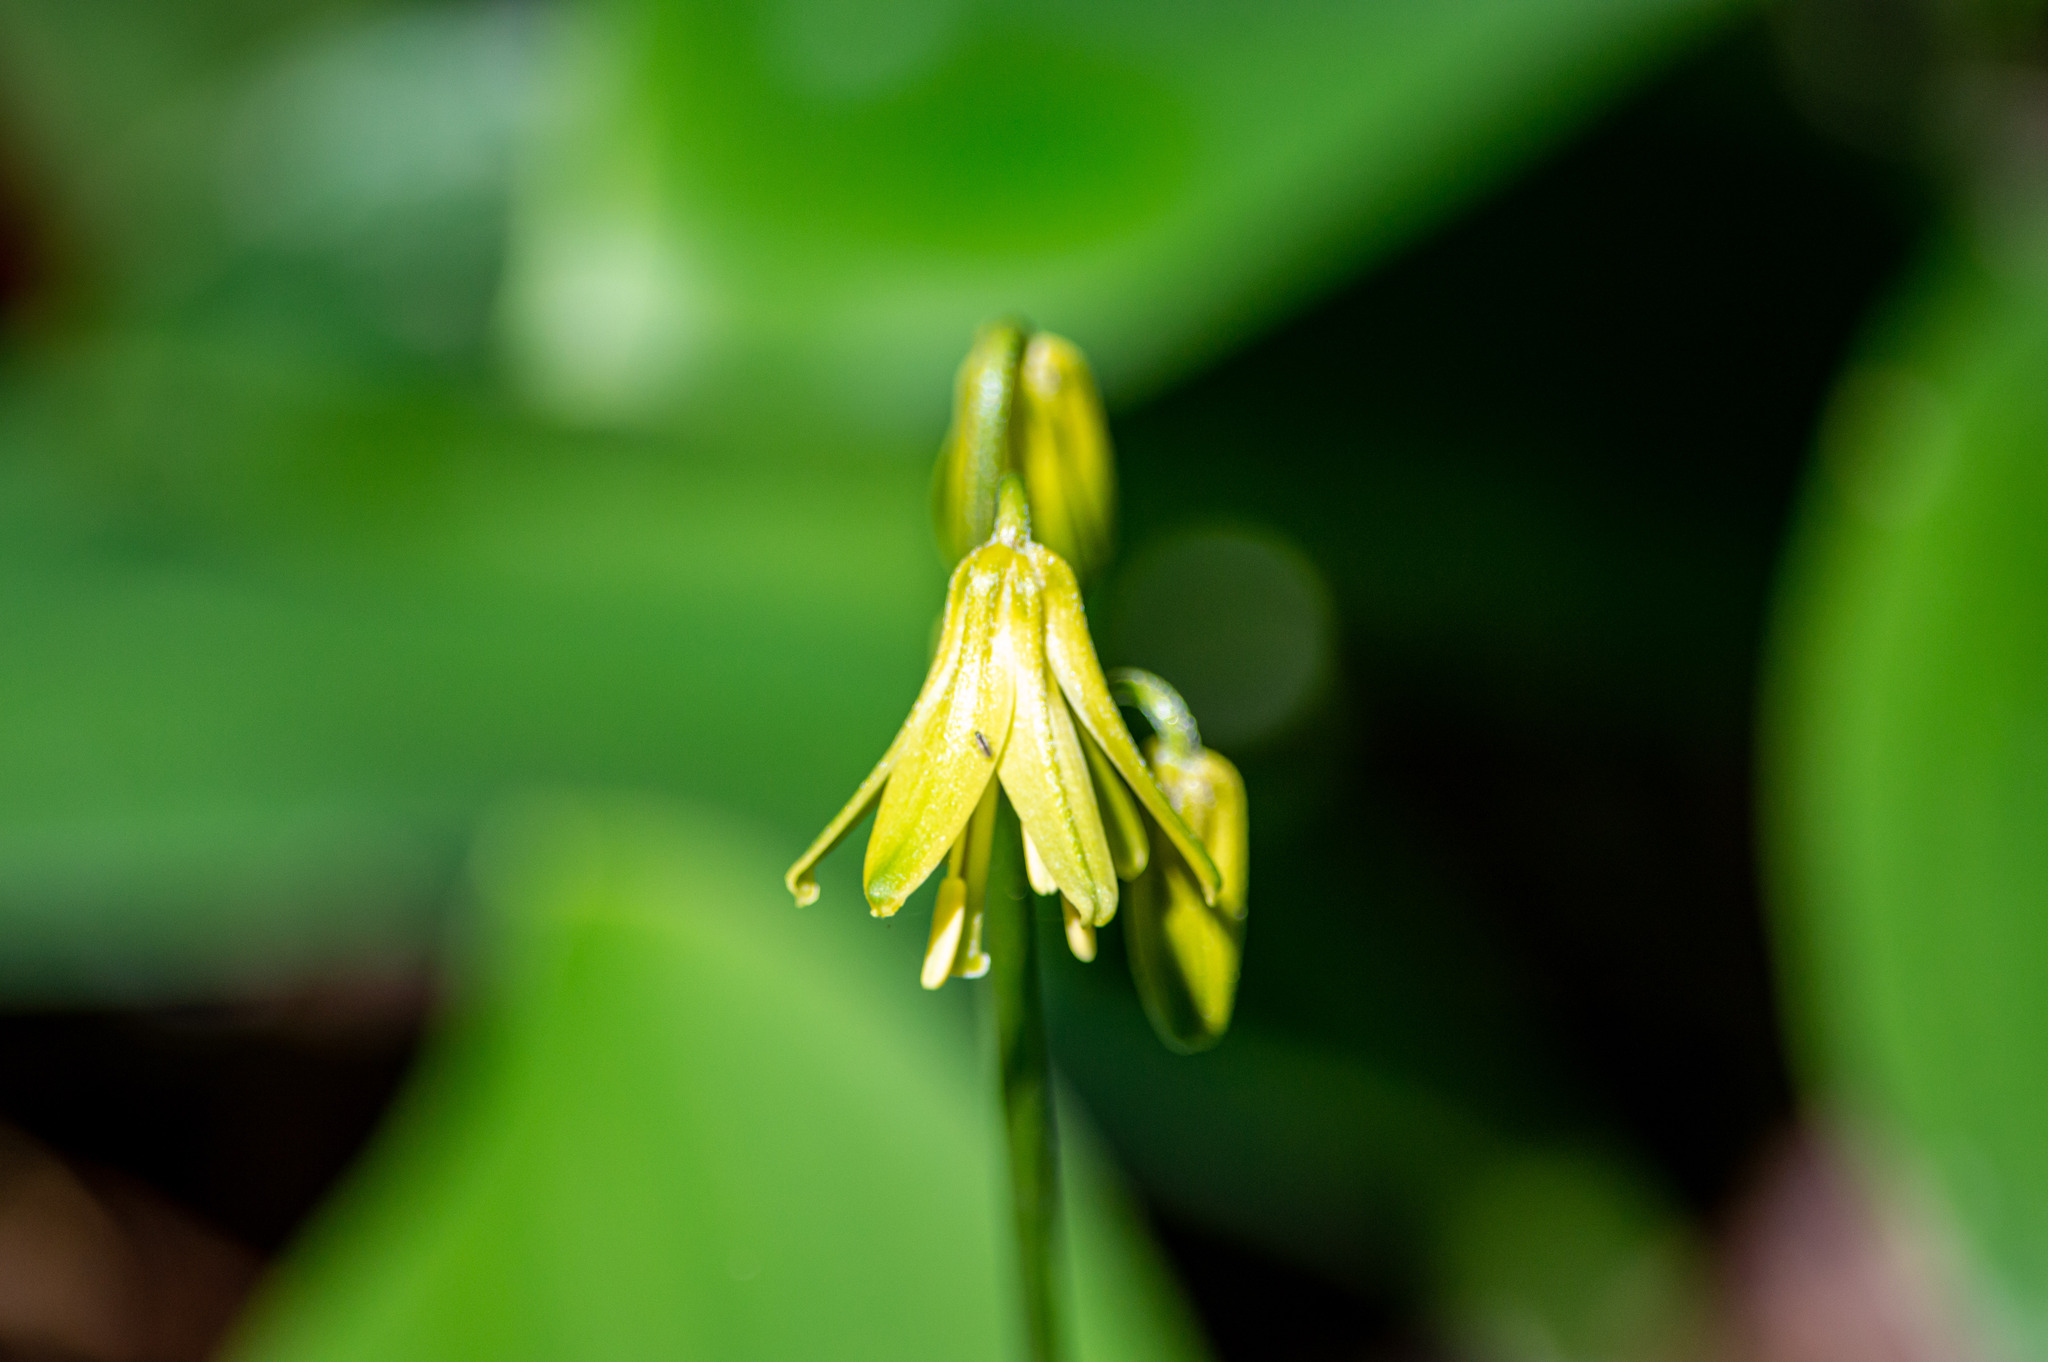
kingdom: Plantae
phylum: Tracheophyta
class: Liliopsida
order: Liliales
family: Liliaceae
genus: Clintonia
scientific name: Clintonia borealis
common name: Yellow clintonia
